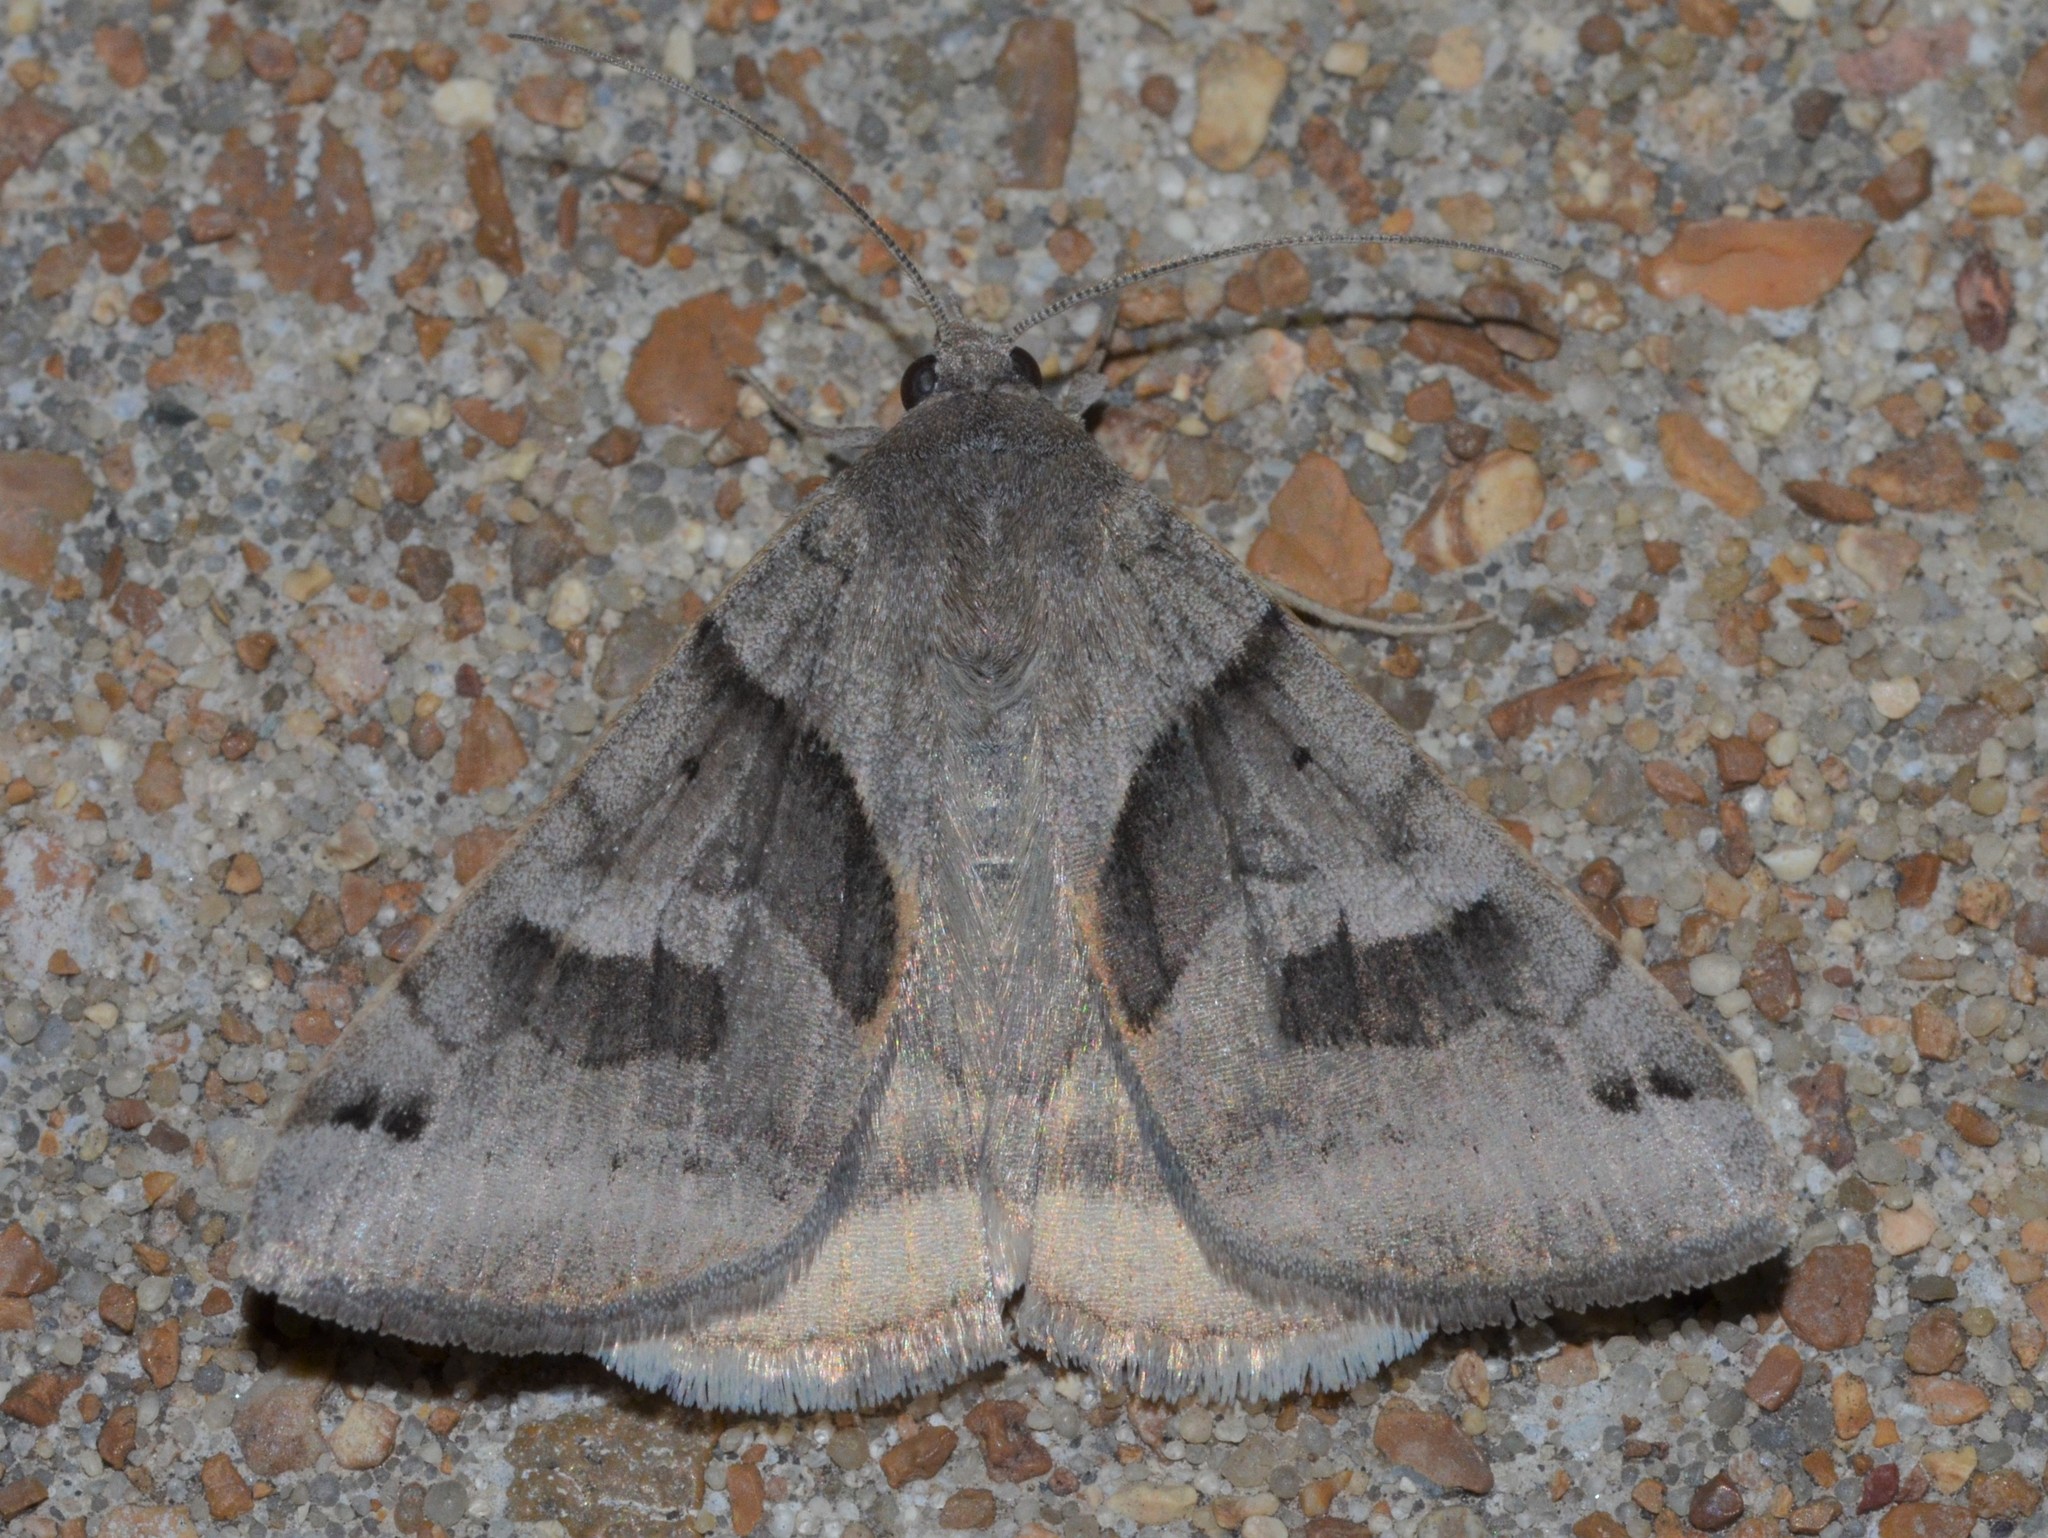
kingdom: Animalia
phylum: Arthropoda
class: Insecta
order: Lepidoptera
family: Erebidae
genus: Caenurgina
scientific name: Caenurgina erechtea
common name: Forage looper moth
